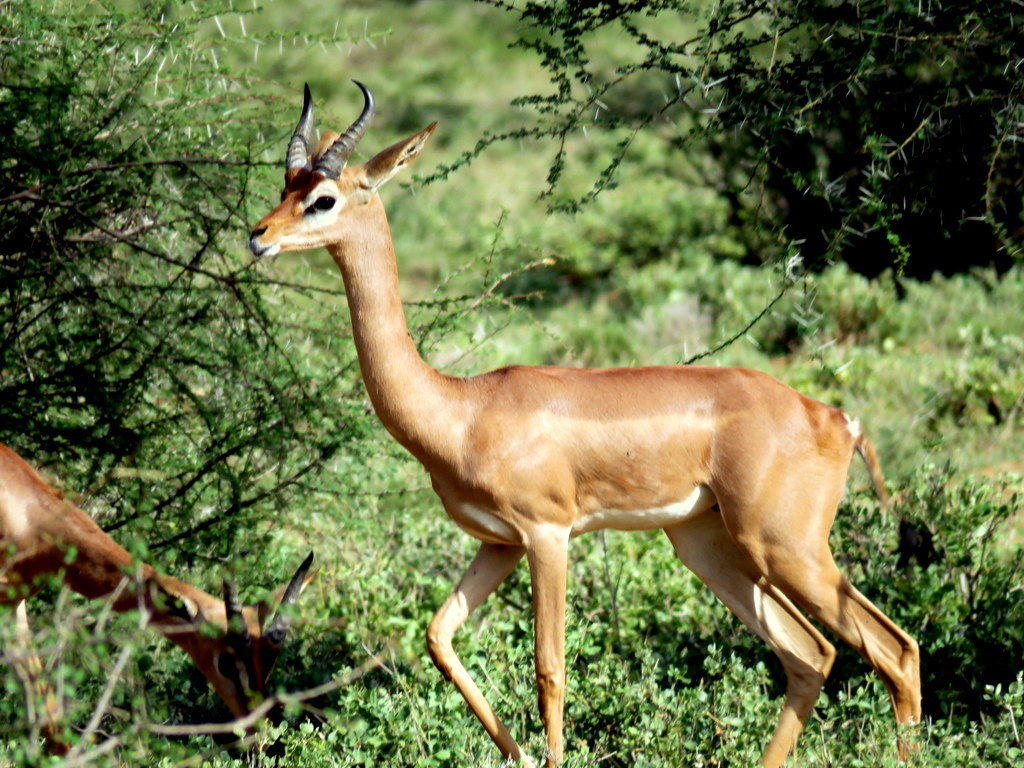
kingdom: Animalia
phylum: Chordata
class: Mammalia
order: Artiodactyla
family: Bovidae
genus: Litocranius
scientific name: Litocranius walleri
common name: Gerenuk
